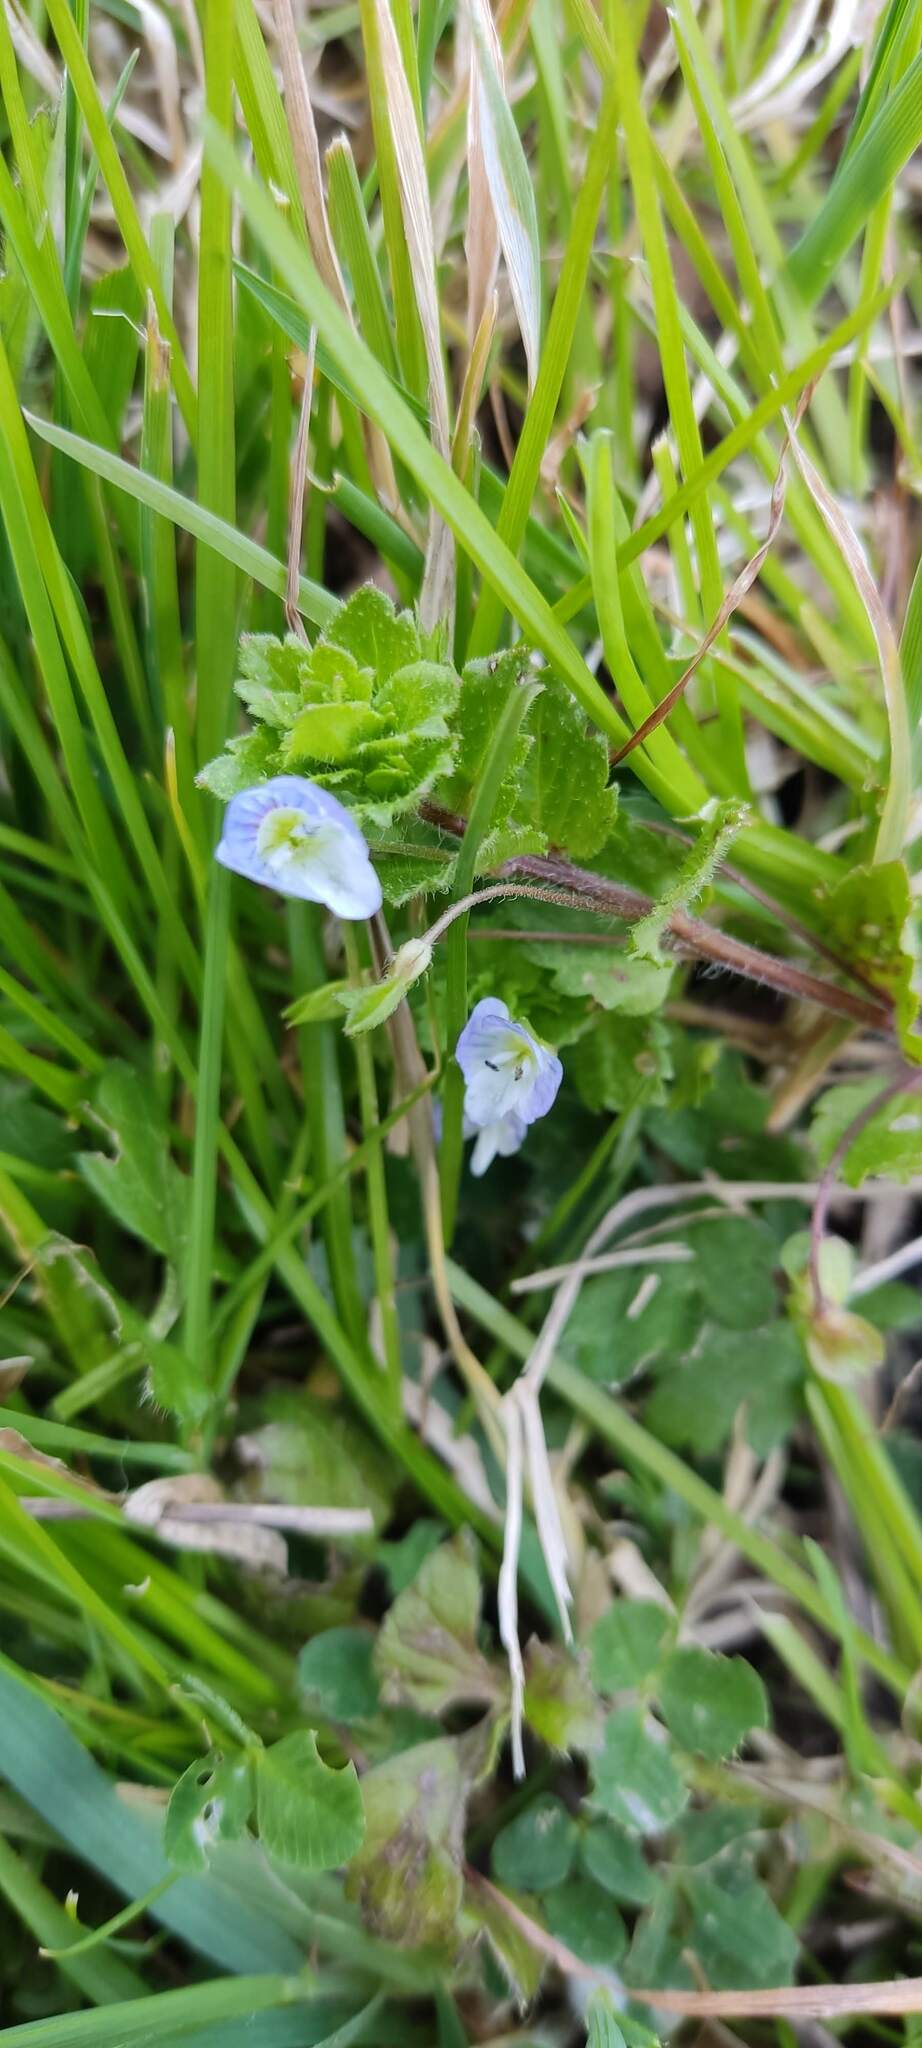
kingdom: Plantae
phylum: Tracheophyta
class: Magnoliopsida
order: Lamiales
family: Plantaginaceae
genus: Veronica
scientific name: Veronica persica
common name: Common field-speedwell
